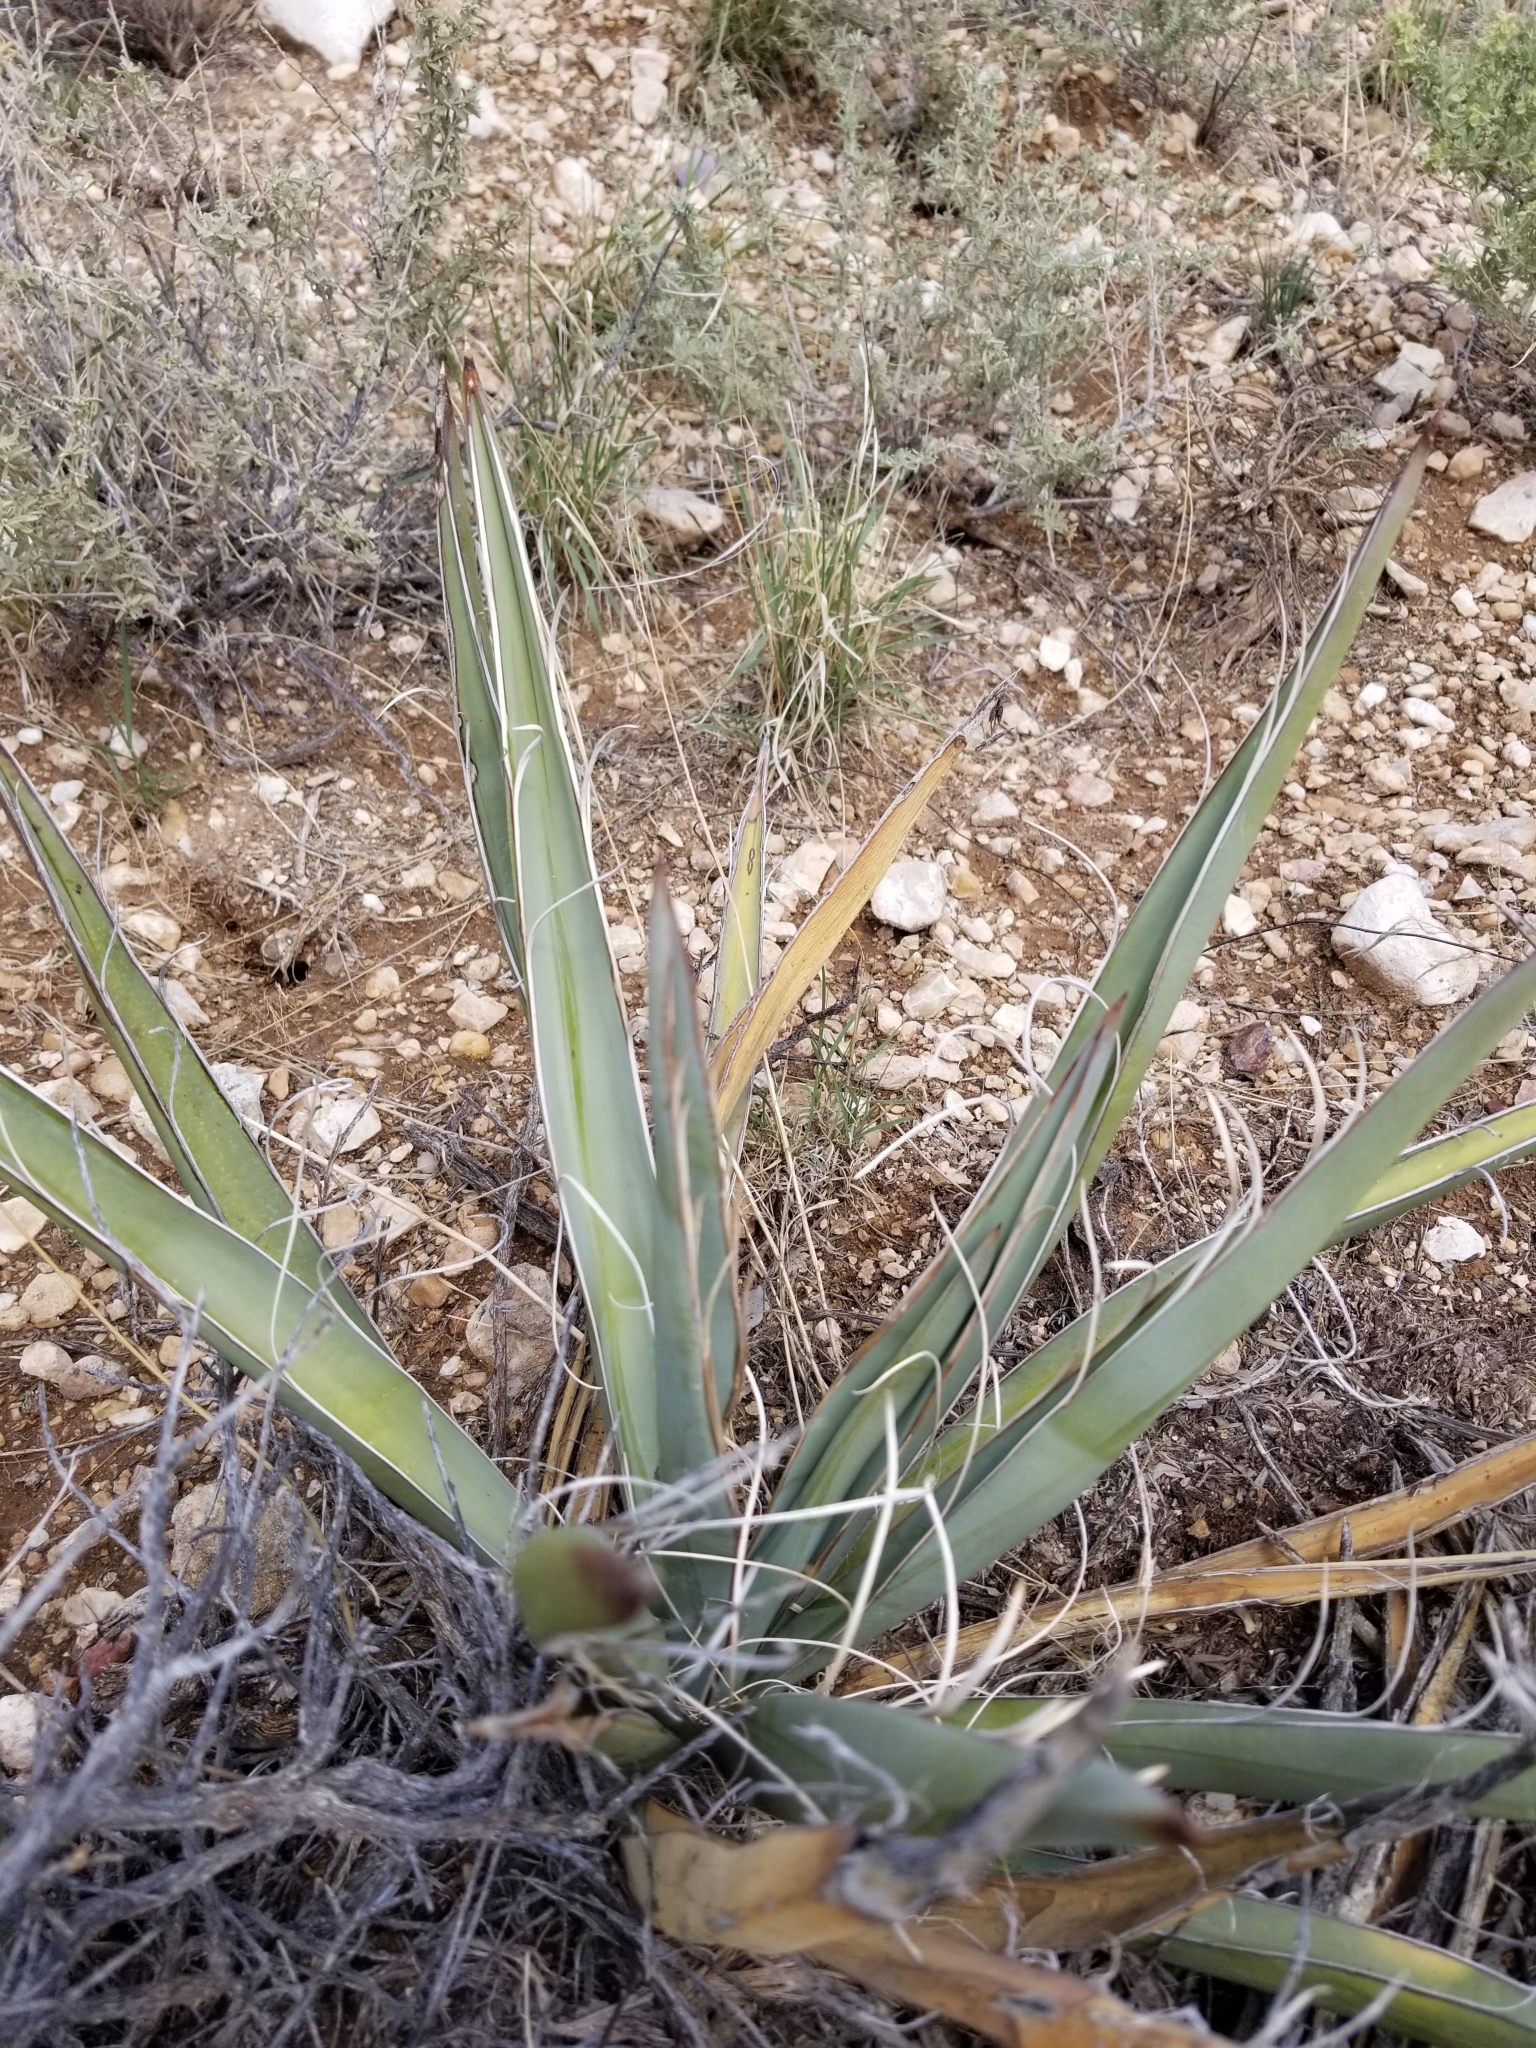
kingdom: Plantae
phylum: Tracheophyta
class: Liliopsida
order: Asparagales
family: Asparagaceae
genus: Yucca
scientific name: Yucca baccata
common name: Banana yucca
